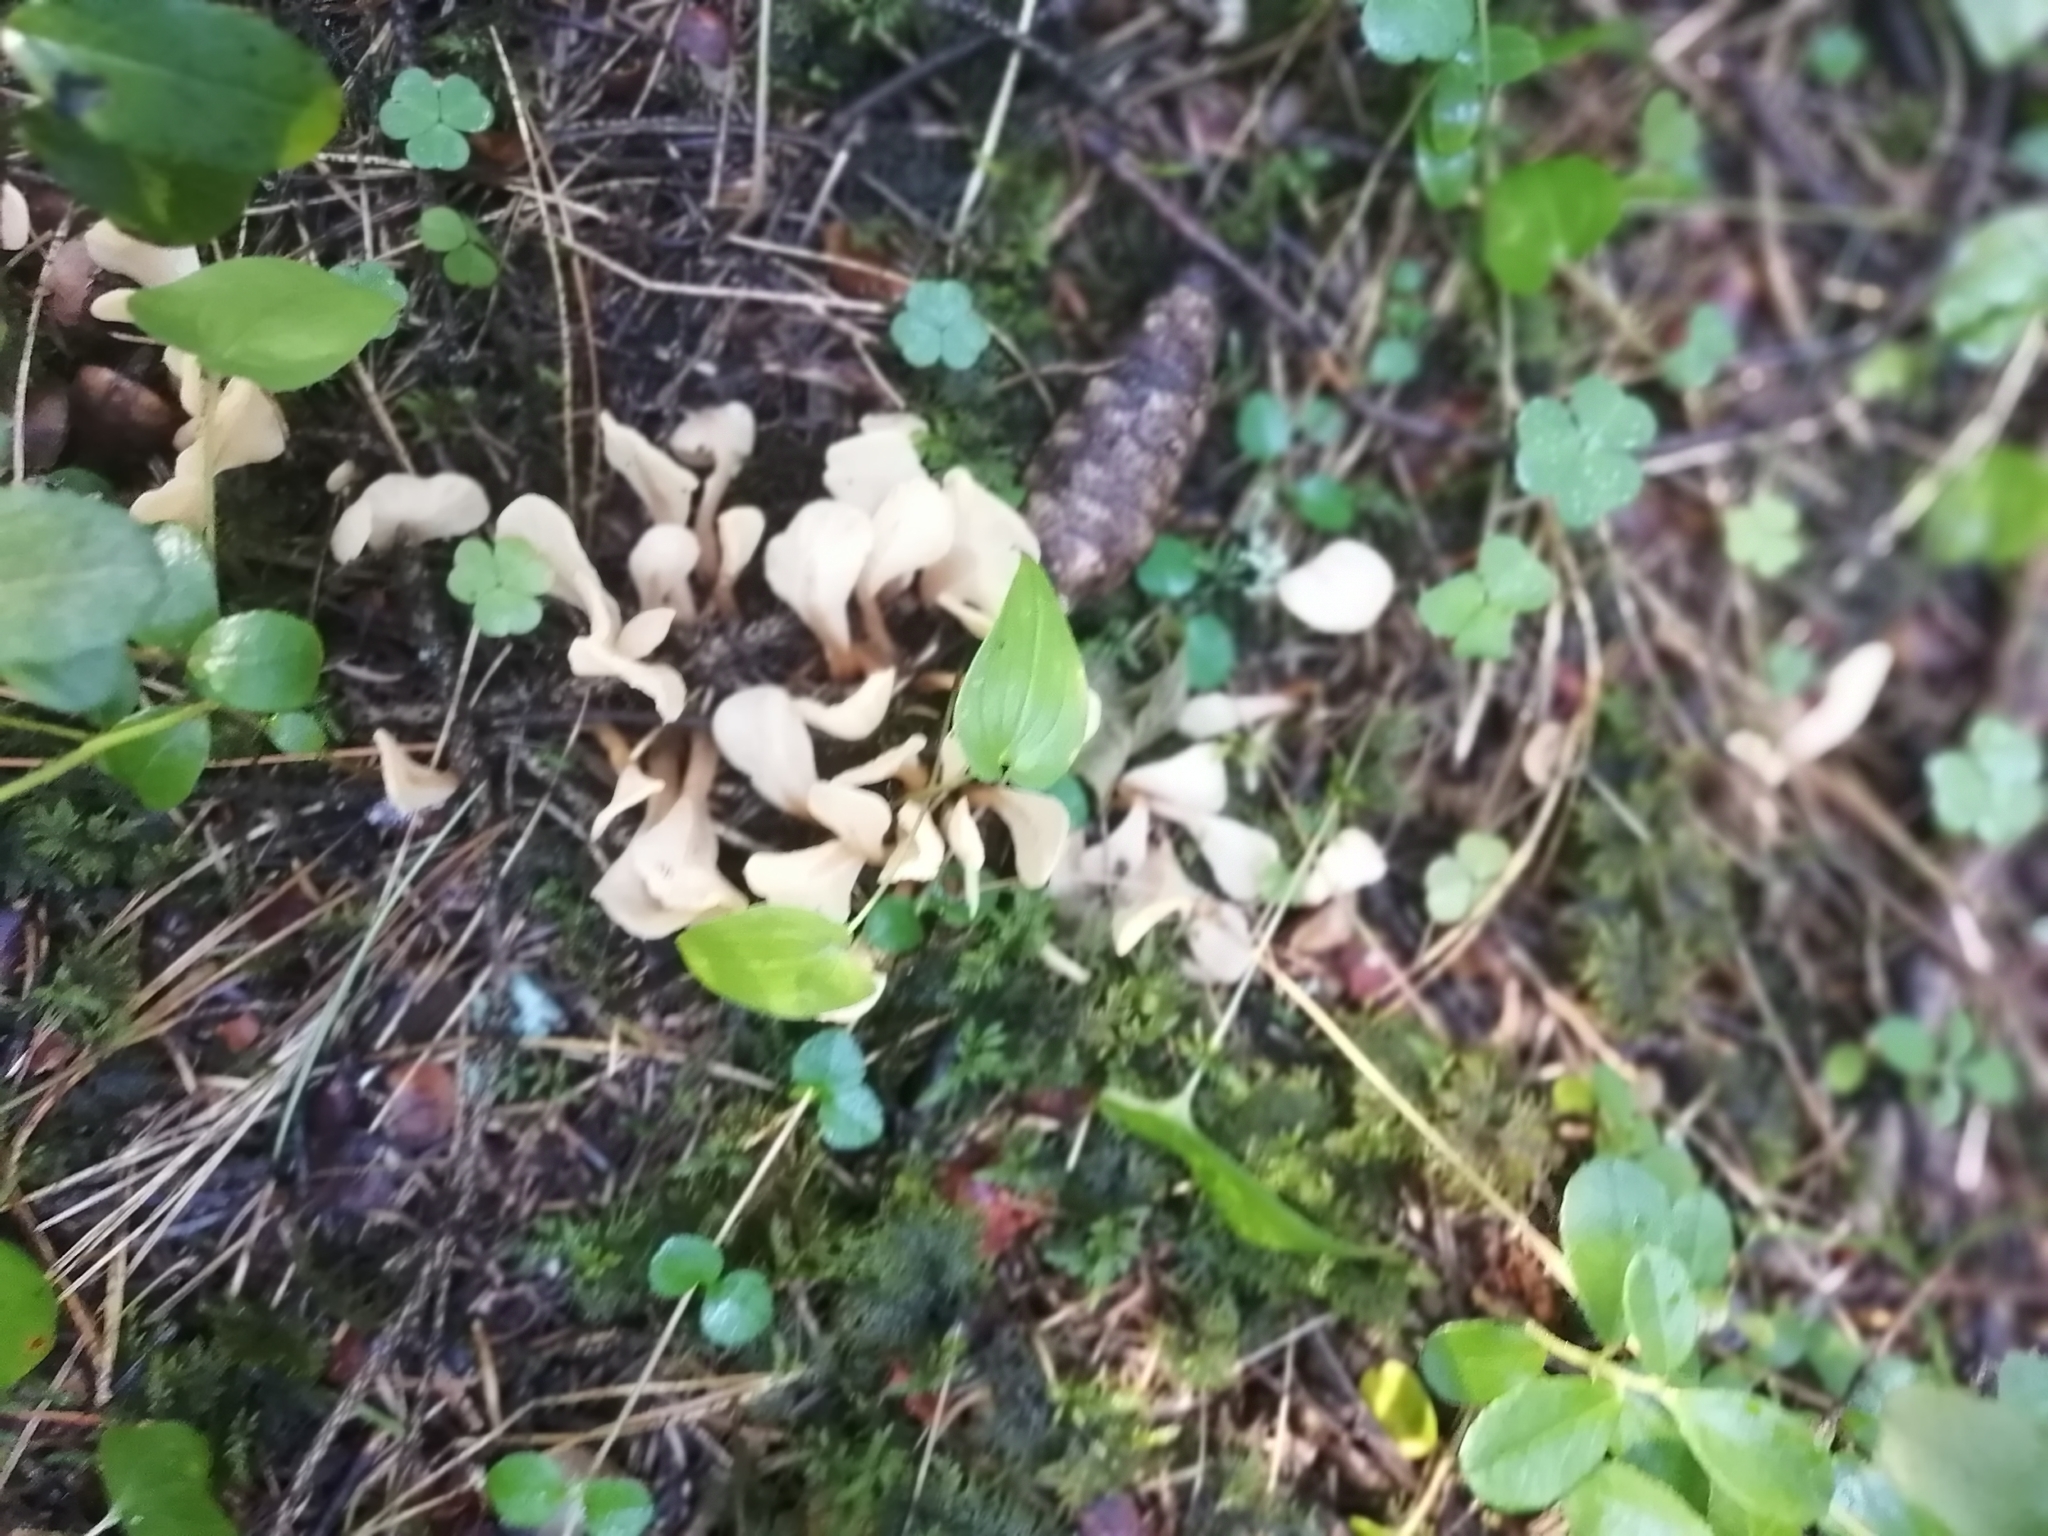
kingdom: Fungi
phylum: Ascomycota
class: Leotiomycetes
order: Rhytismatales
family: Cudoniaceae
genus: Spathularia
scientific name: Spathularia rufa
